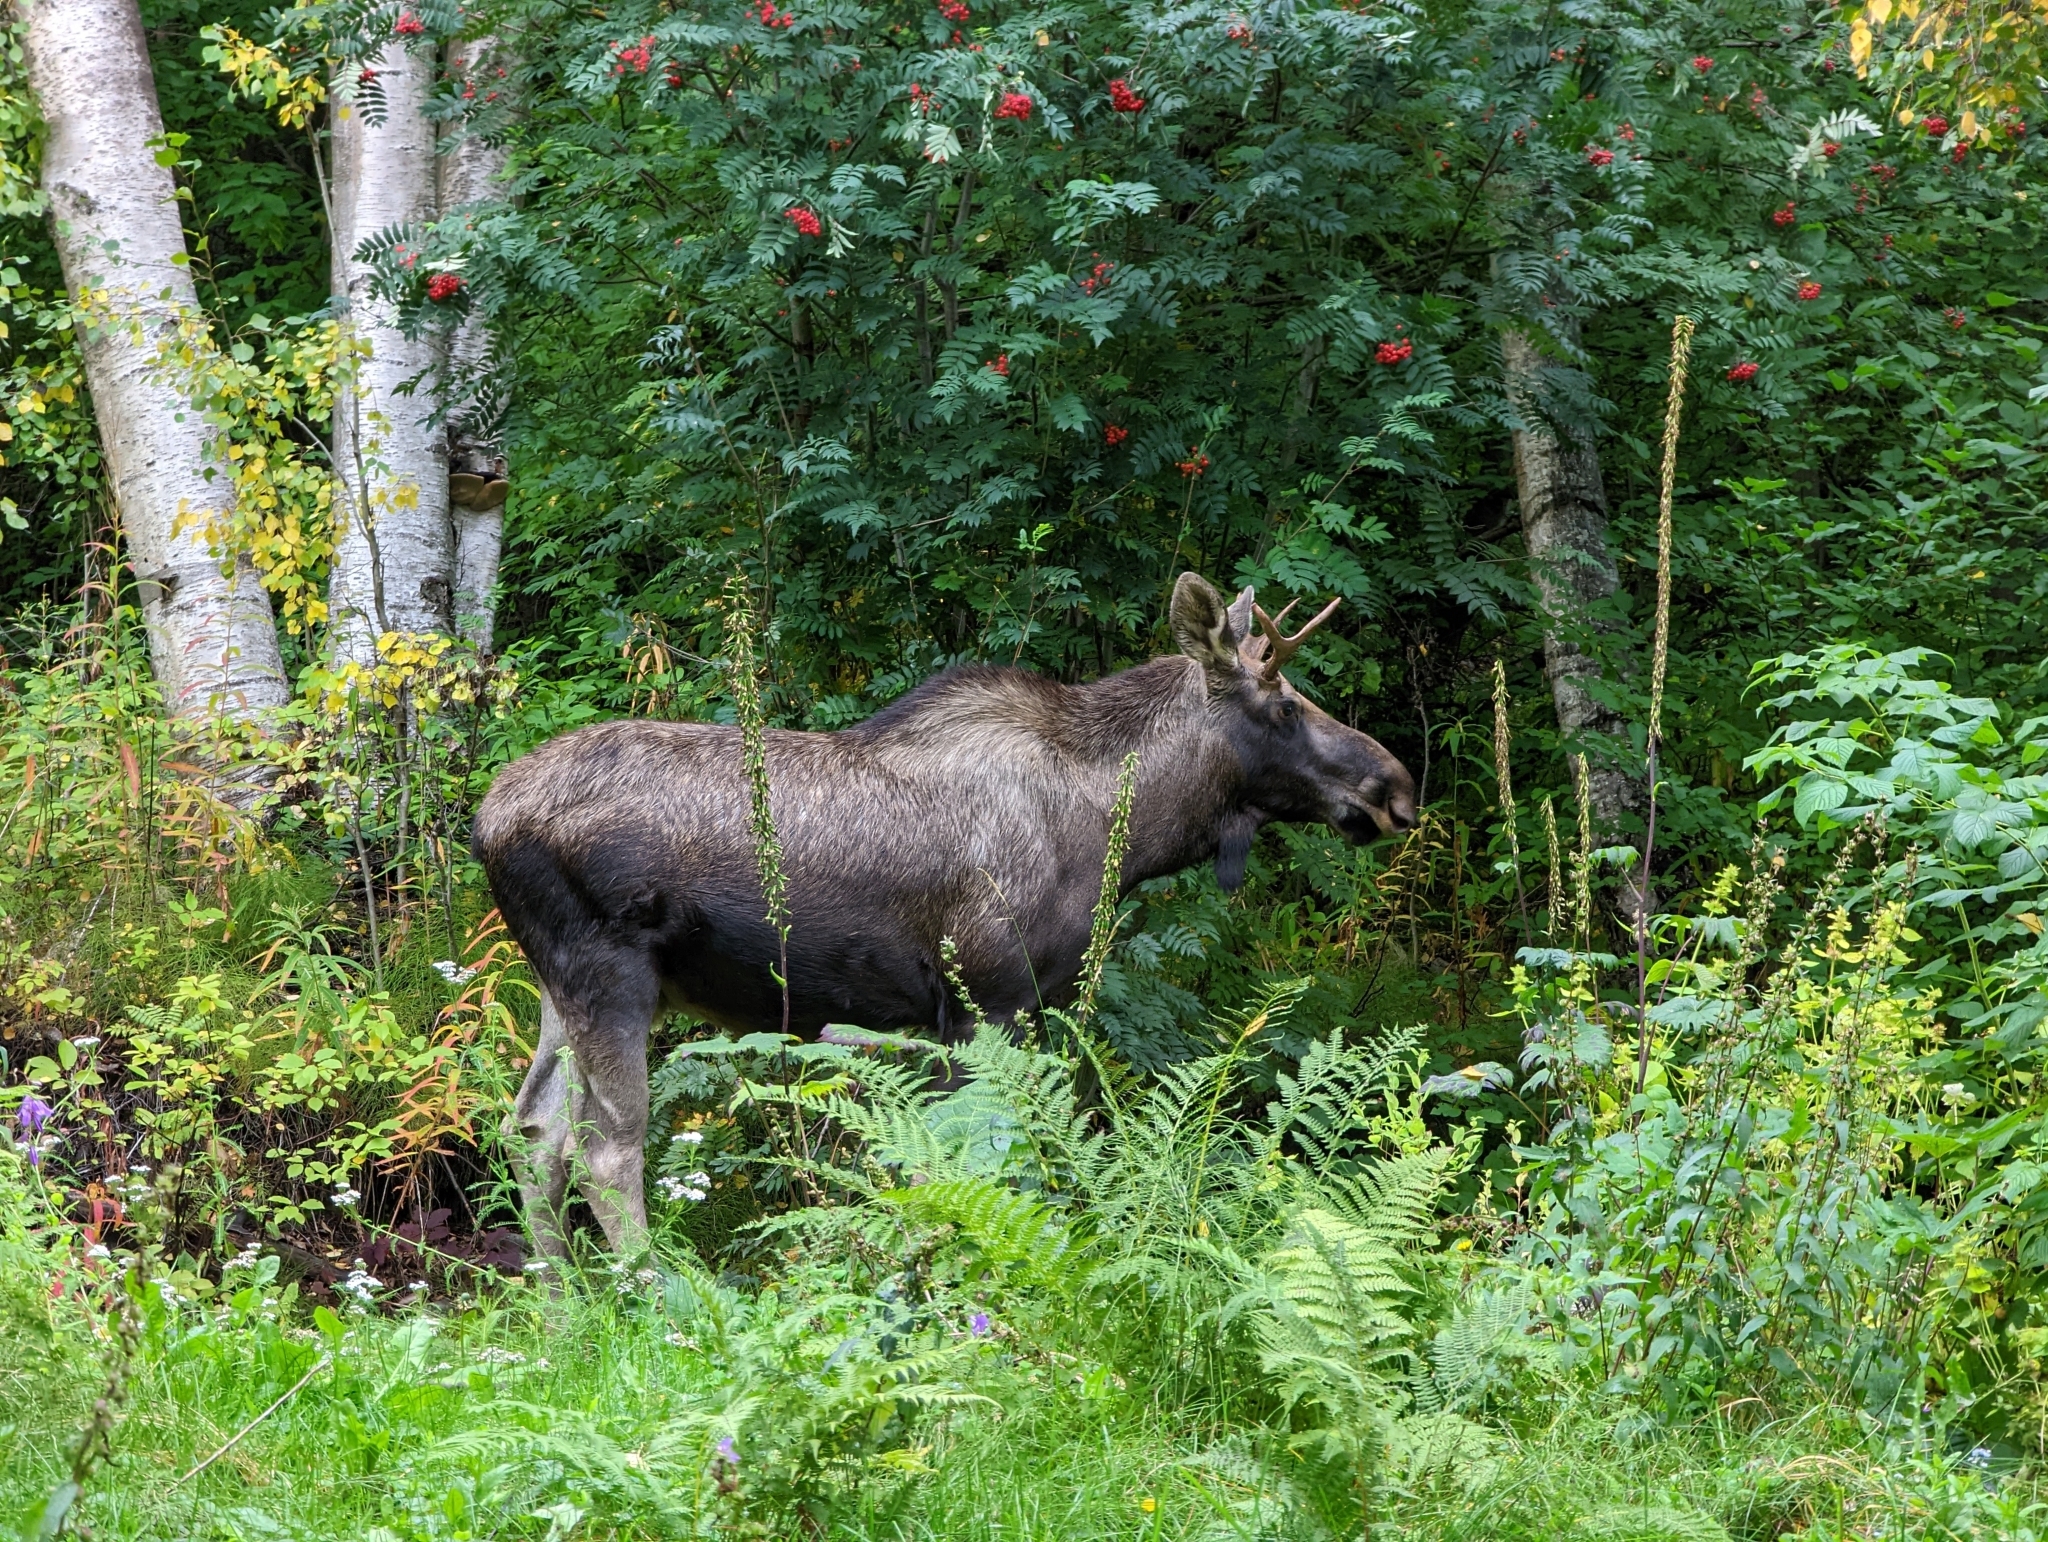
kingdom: Animalia
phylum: Chordata
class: Mammalia
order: Artiodactyla
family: Cervidae
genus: Alces
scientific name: Alces alces
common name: Moose
